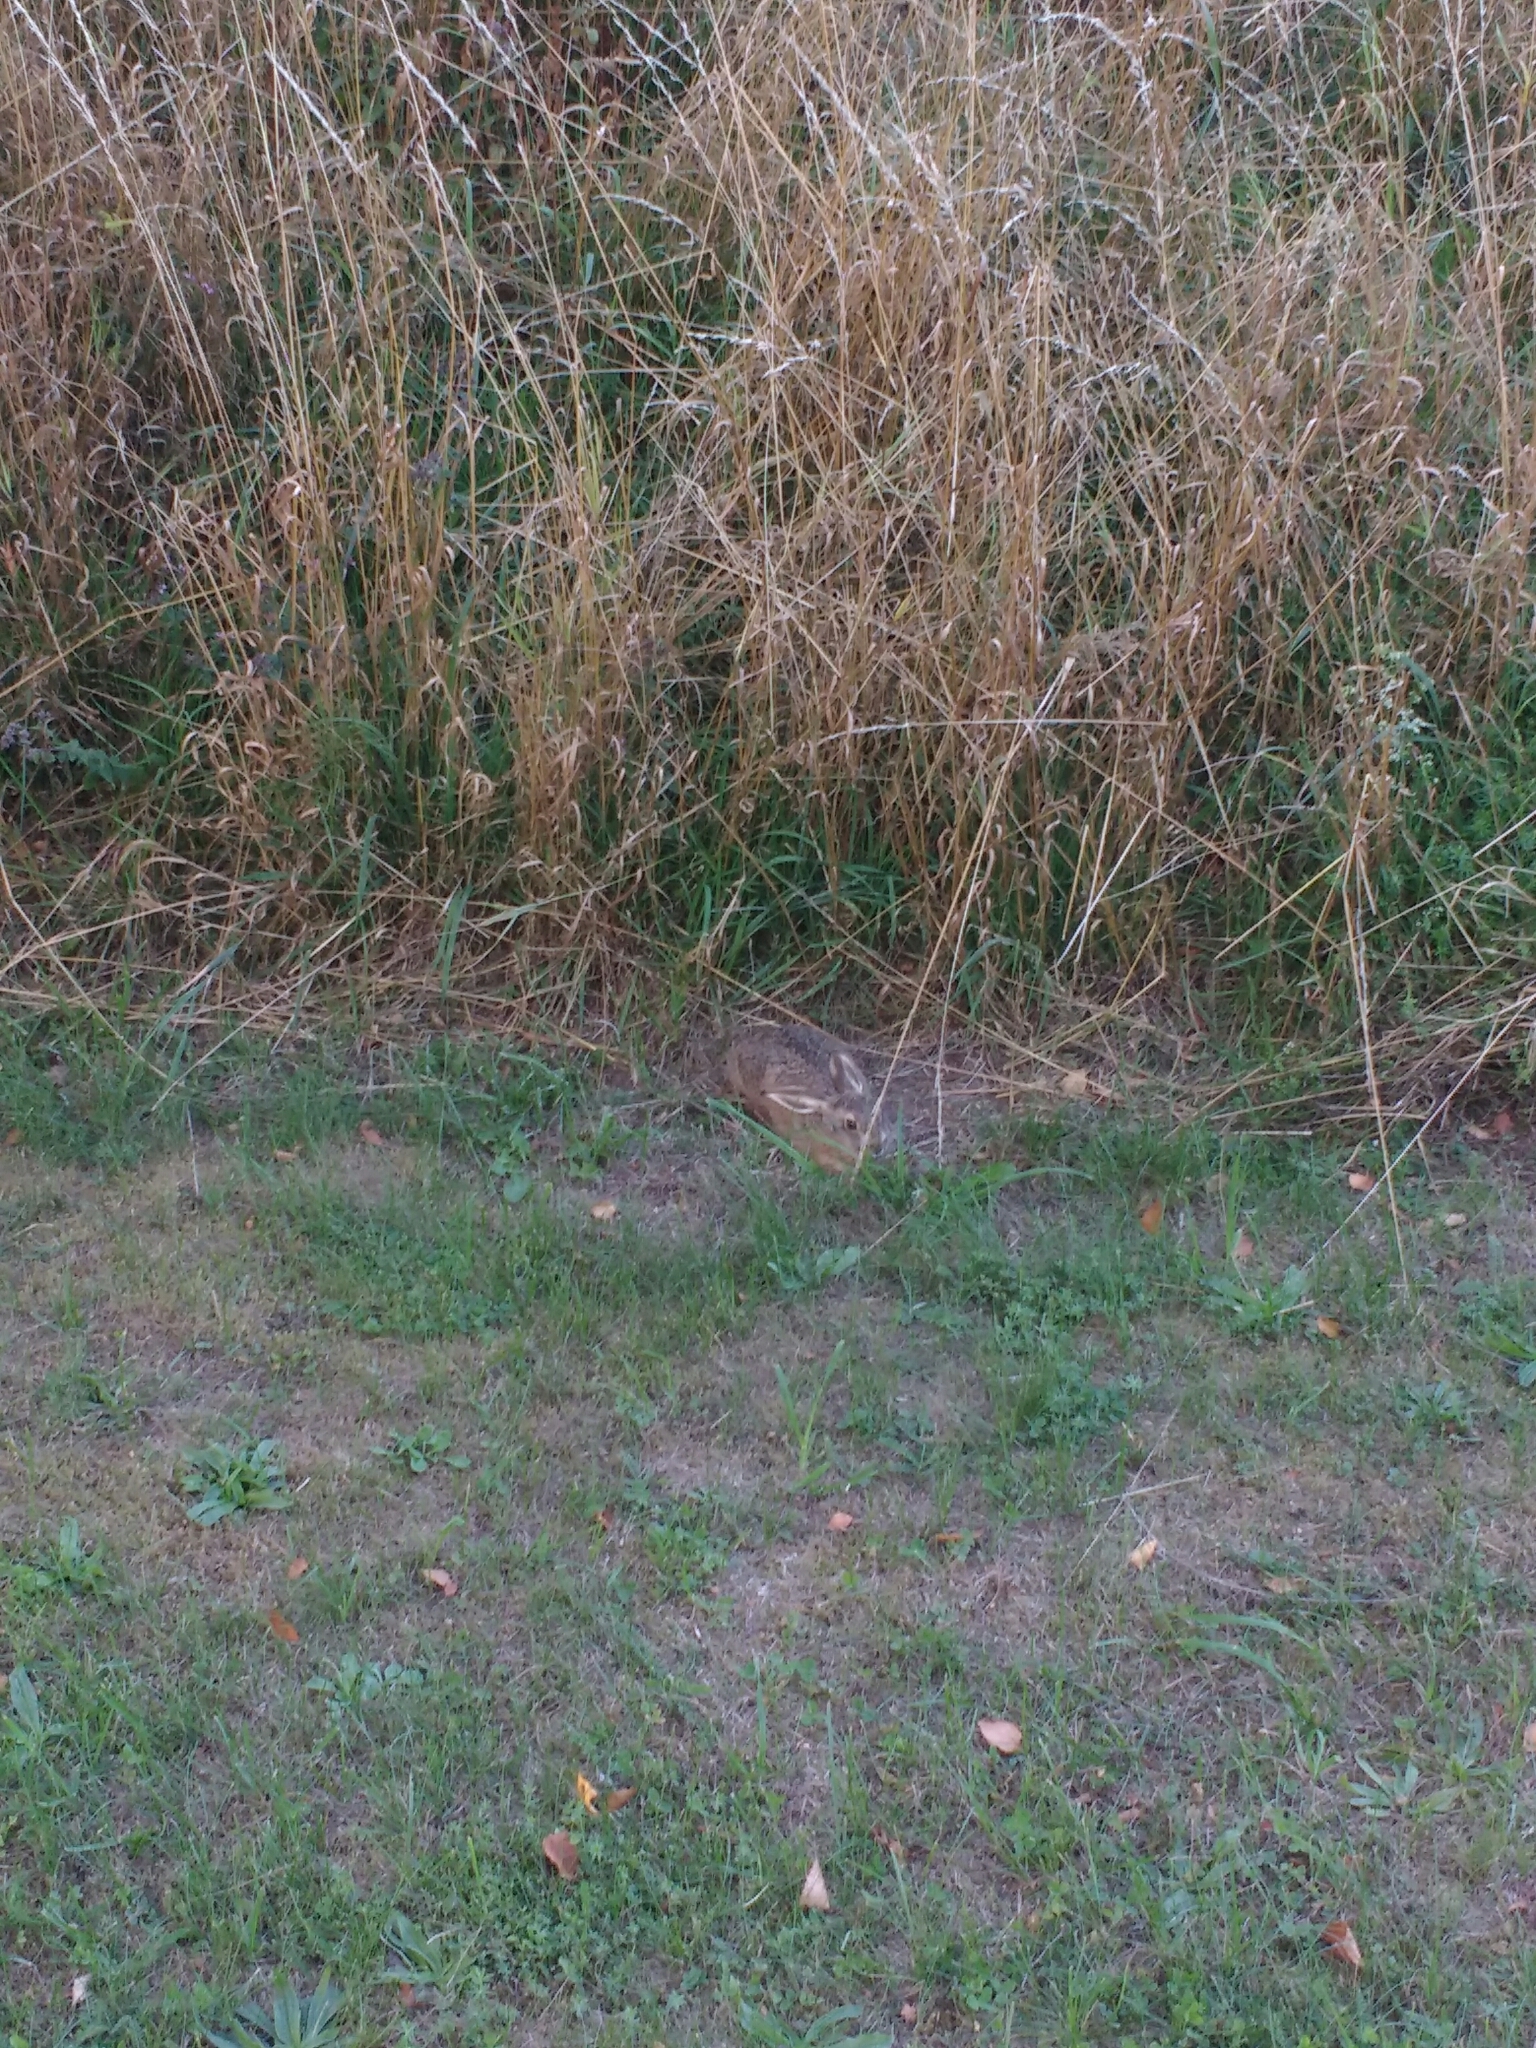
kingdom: Animalia
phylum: Chordata
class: Mammalia
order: Lagomorpha
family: Leporidae
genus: Lepus
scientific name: Lepus europaeus
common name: European hare
